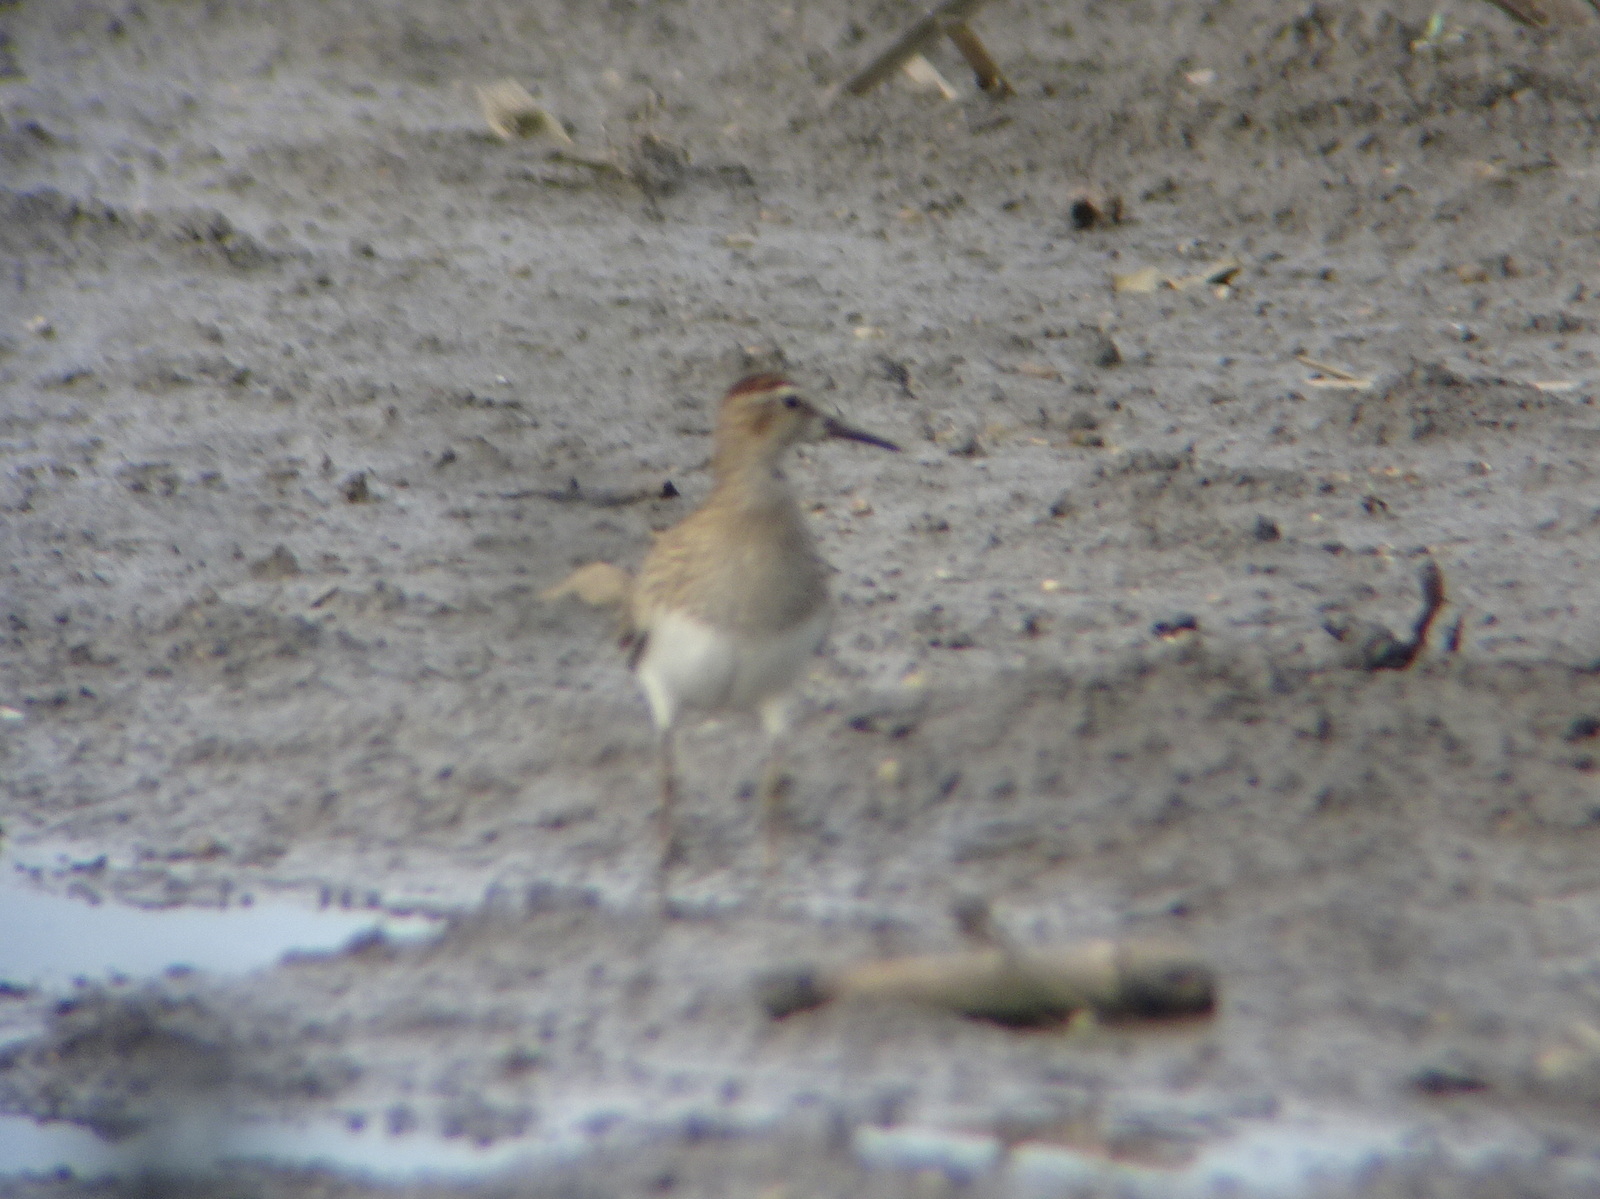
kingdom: Animalia
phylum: Chordata
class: Aves
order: Charadriiformes
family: Scolopacidae
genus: Calidris
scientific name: Calidris melanotos
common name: Pectoral sandpiper
